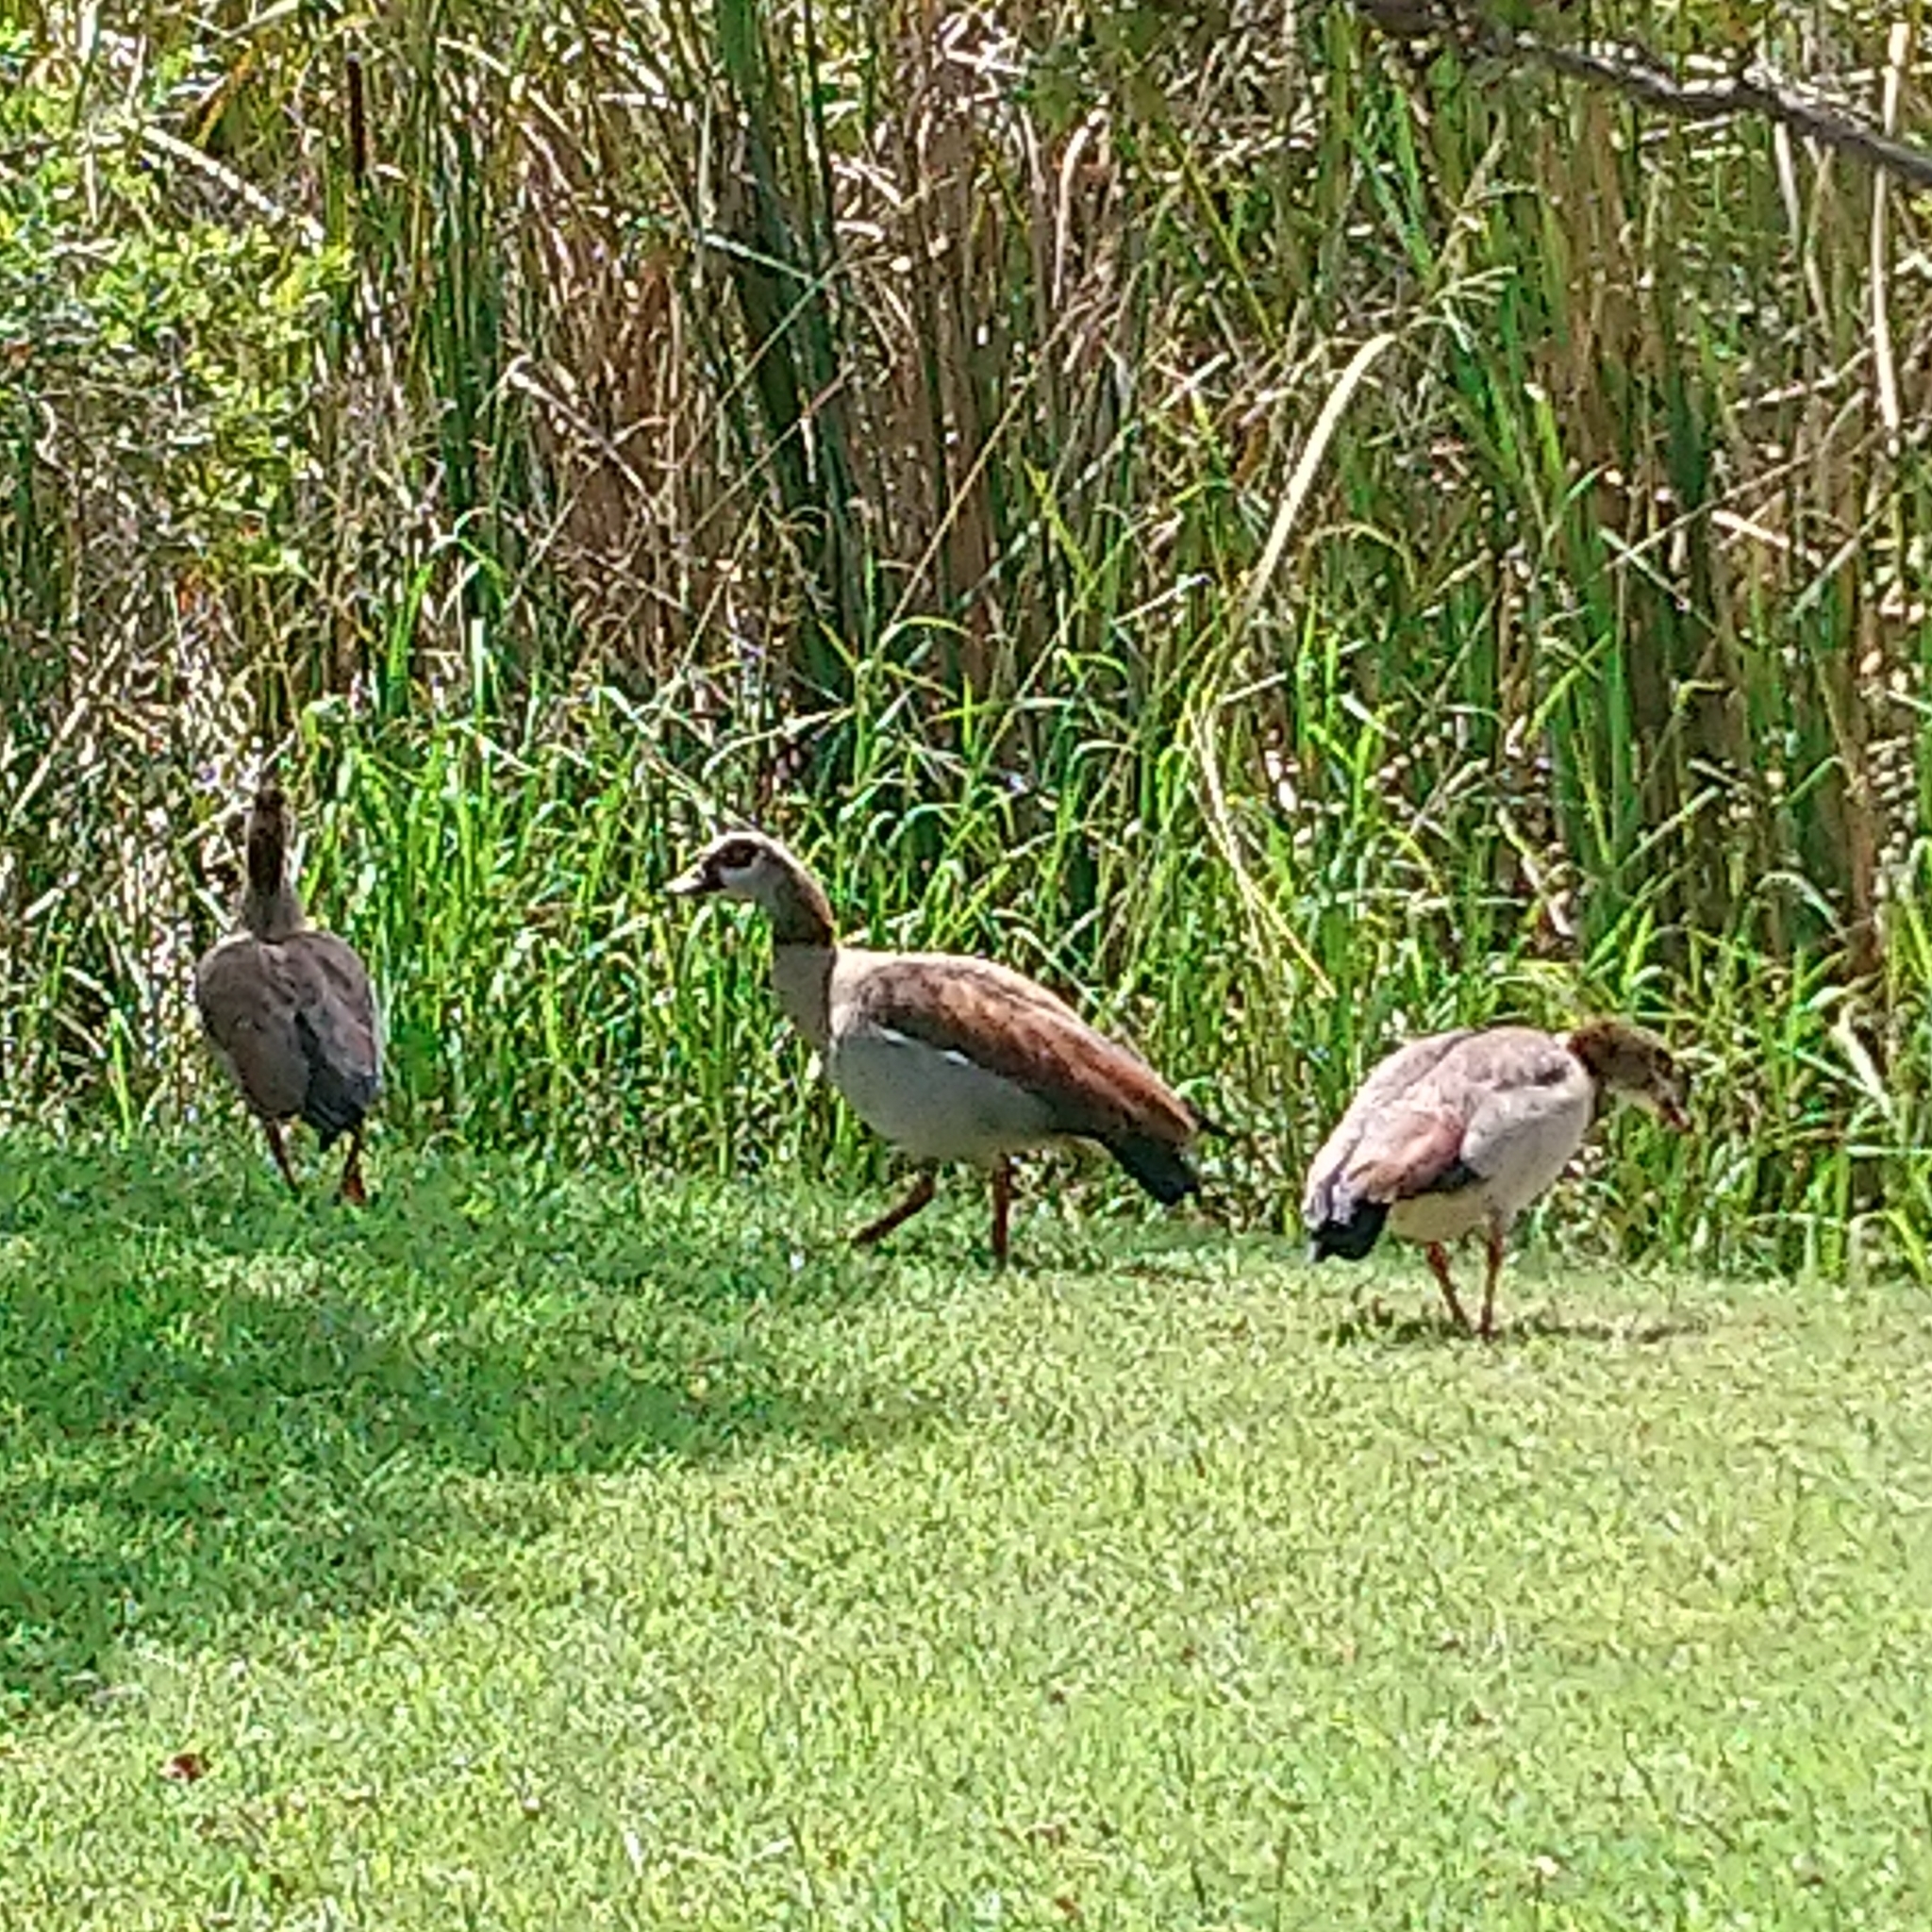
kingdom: Animalia
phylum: Chordata
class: Aves
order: Anseriformes
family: Anatidae
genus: Alopochen
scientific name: Alopochen aegyptiaca
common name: Egyptian goose
